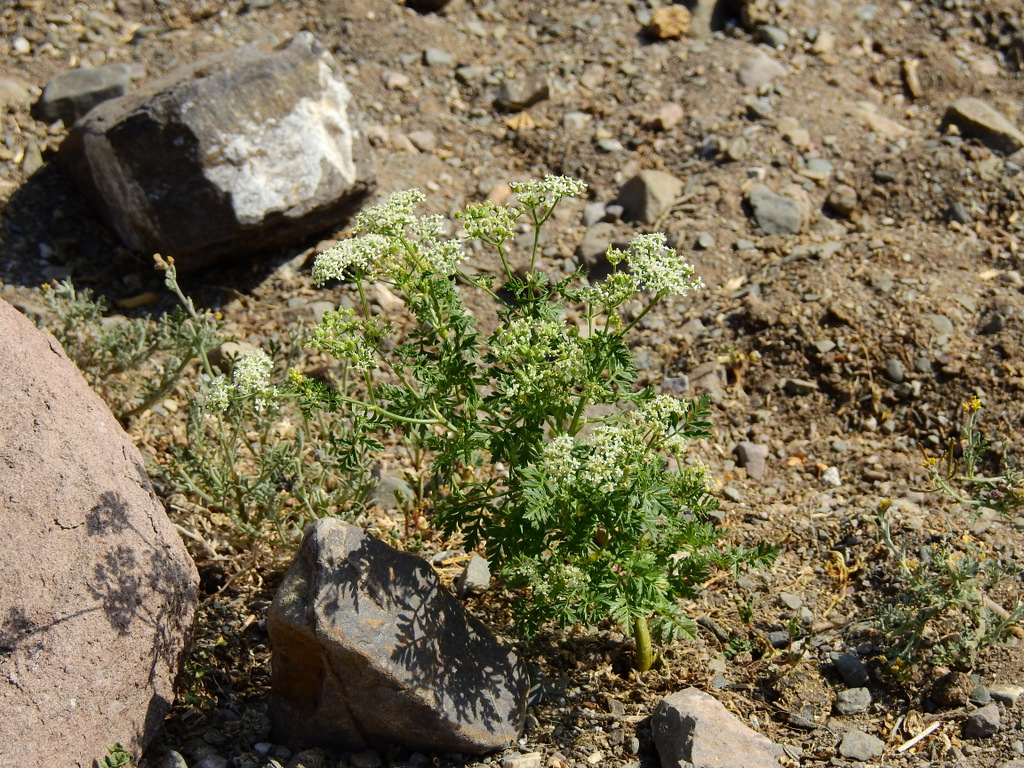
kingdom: Plantae
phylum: Tracheophyta
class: Magnoliopsida
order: Apiales
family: Apiaceae
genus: Conium
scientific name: Conium maculatum
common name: Hemlock
